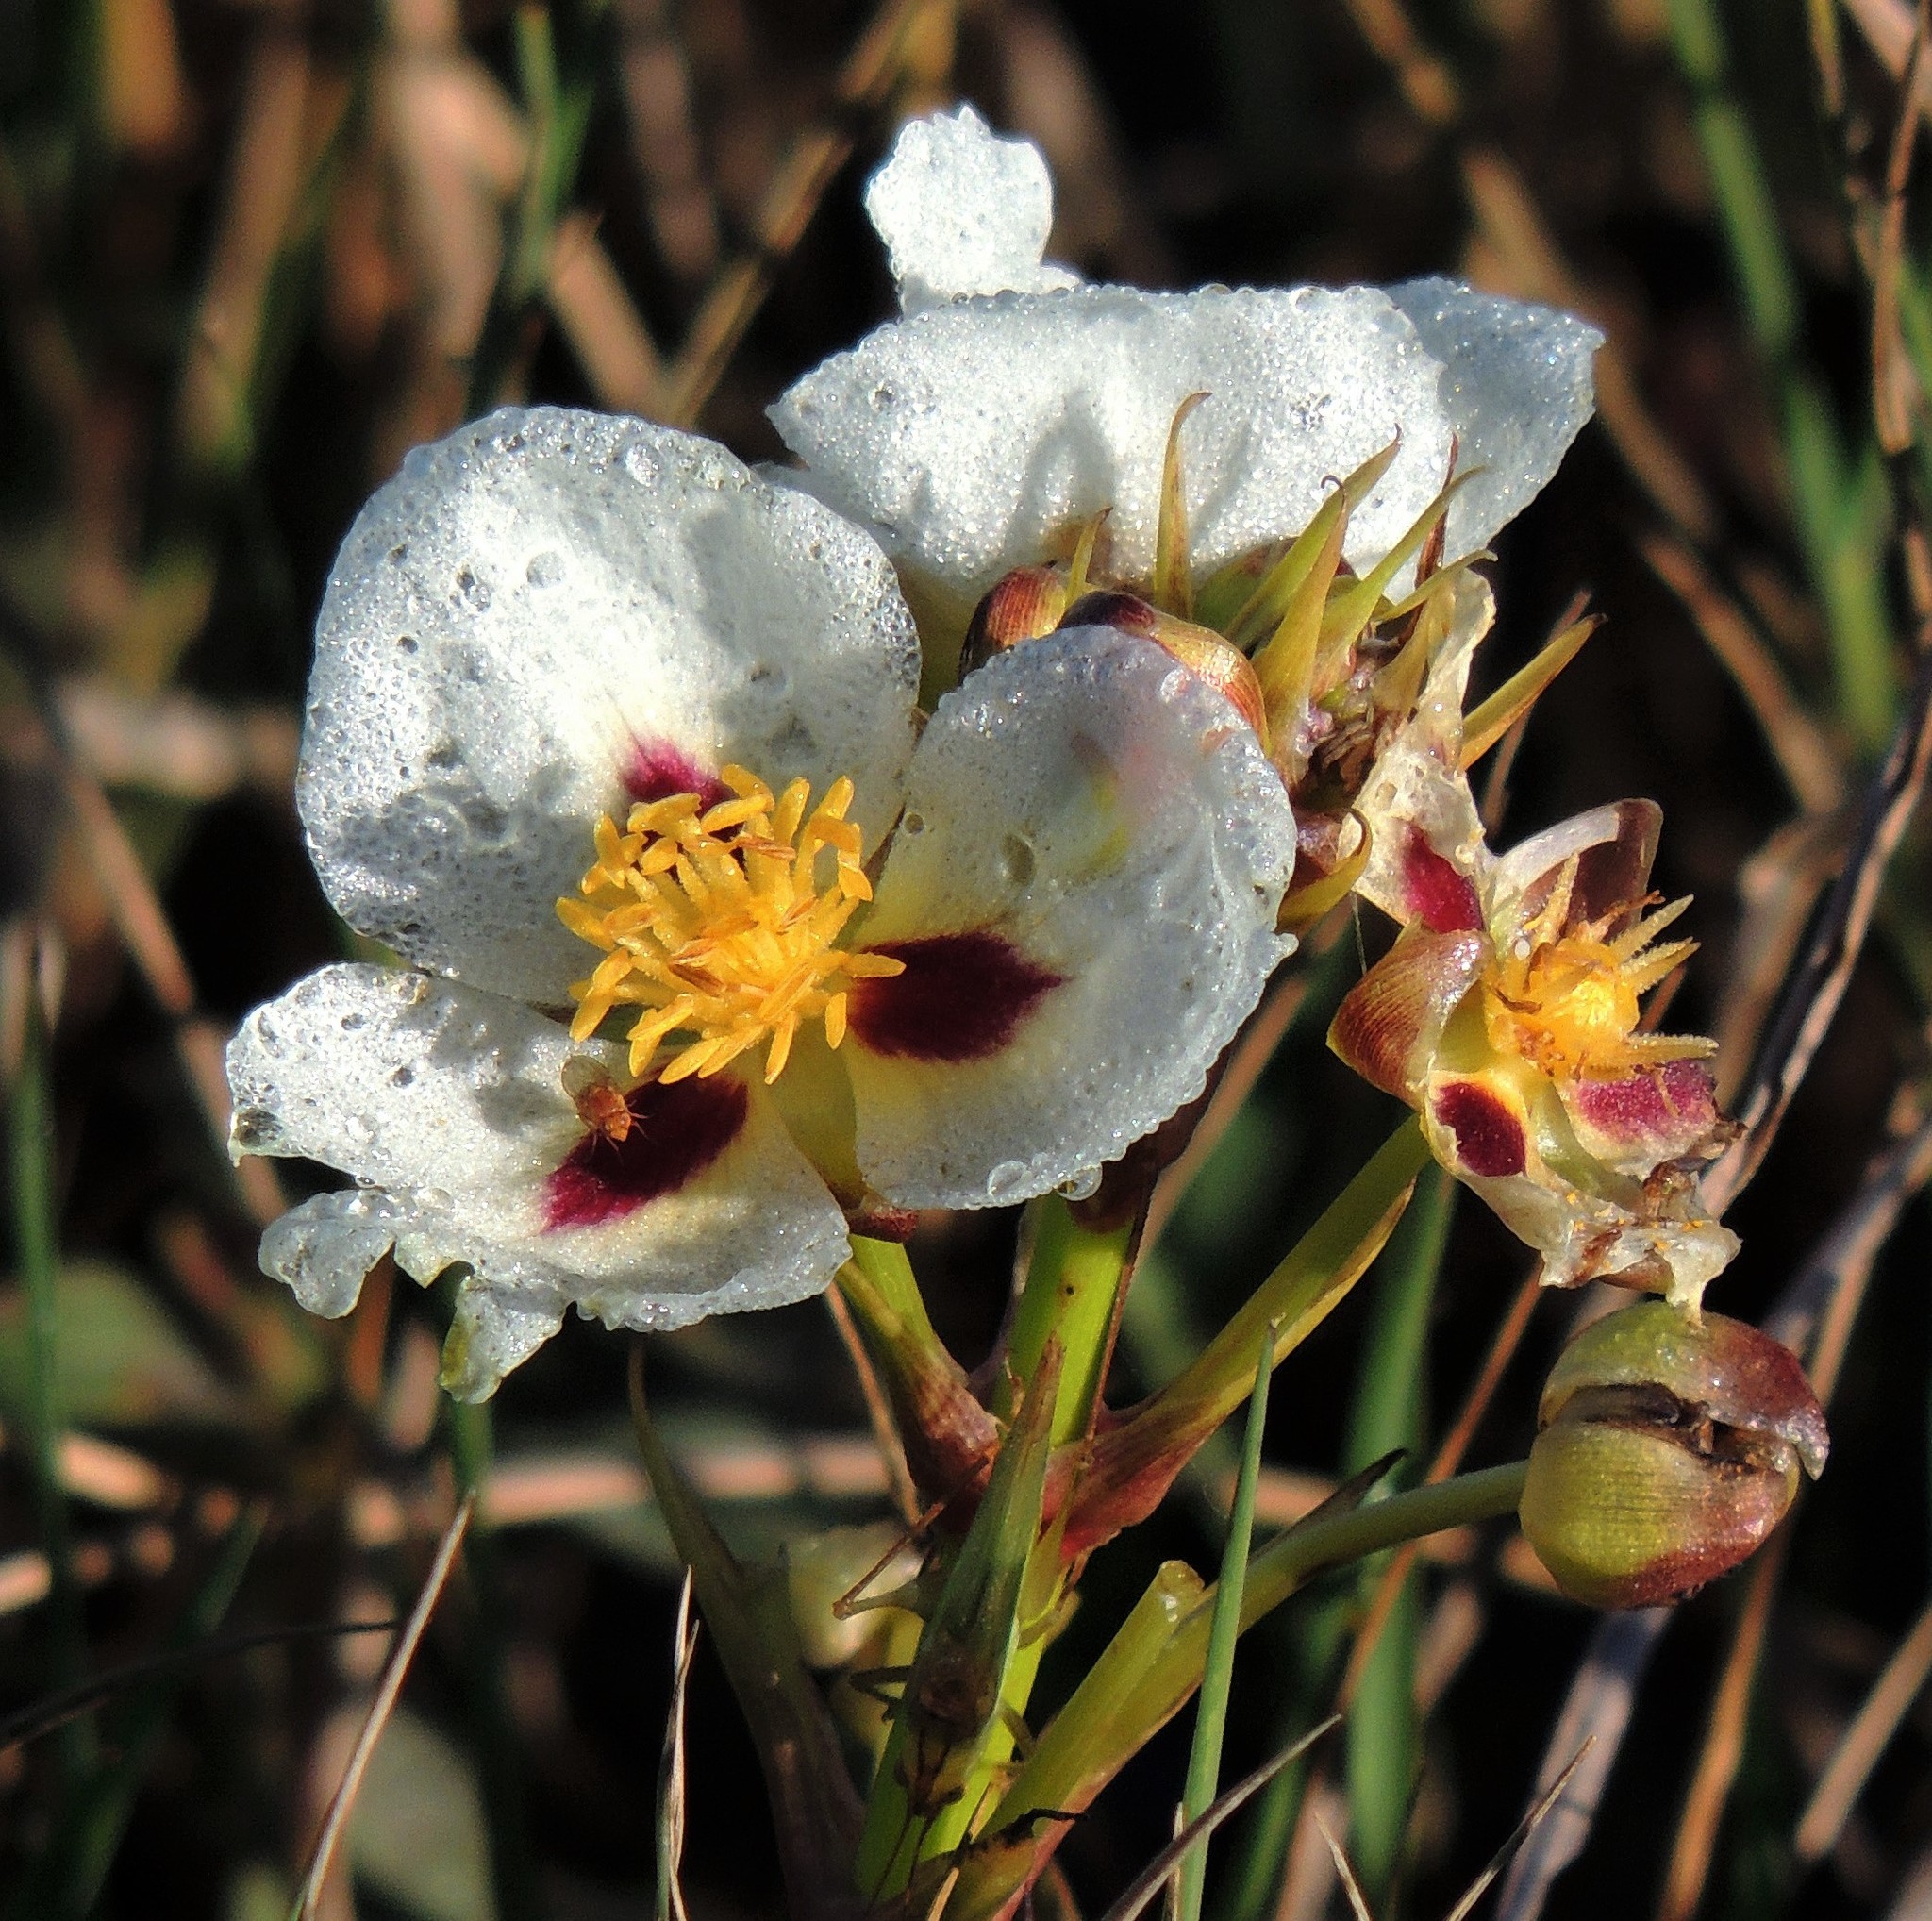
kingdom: Plantae
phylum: Tracheophyta
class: Liliopsida
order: Alismatales
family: Alismataceae
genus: Sagittaria
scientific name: Sagittaria montevidensis
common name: Giant arrowhead
